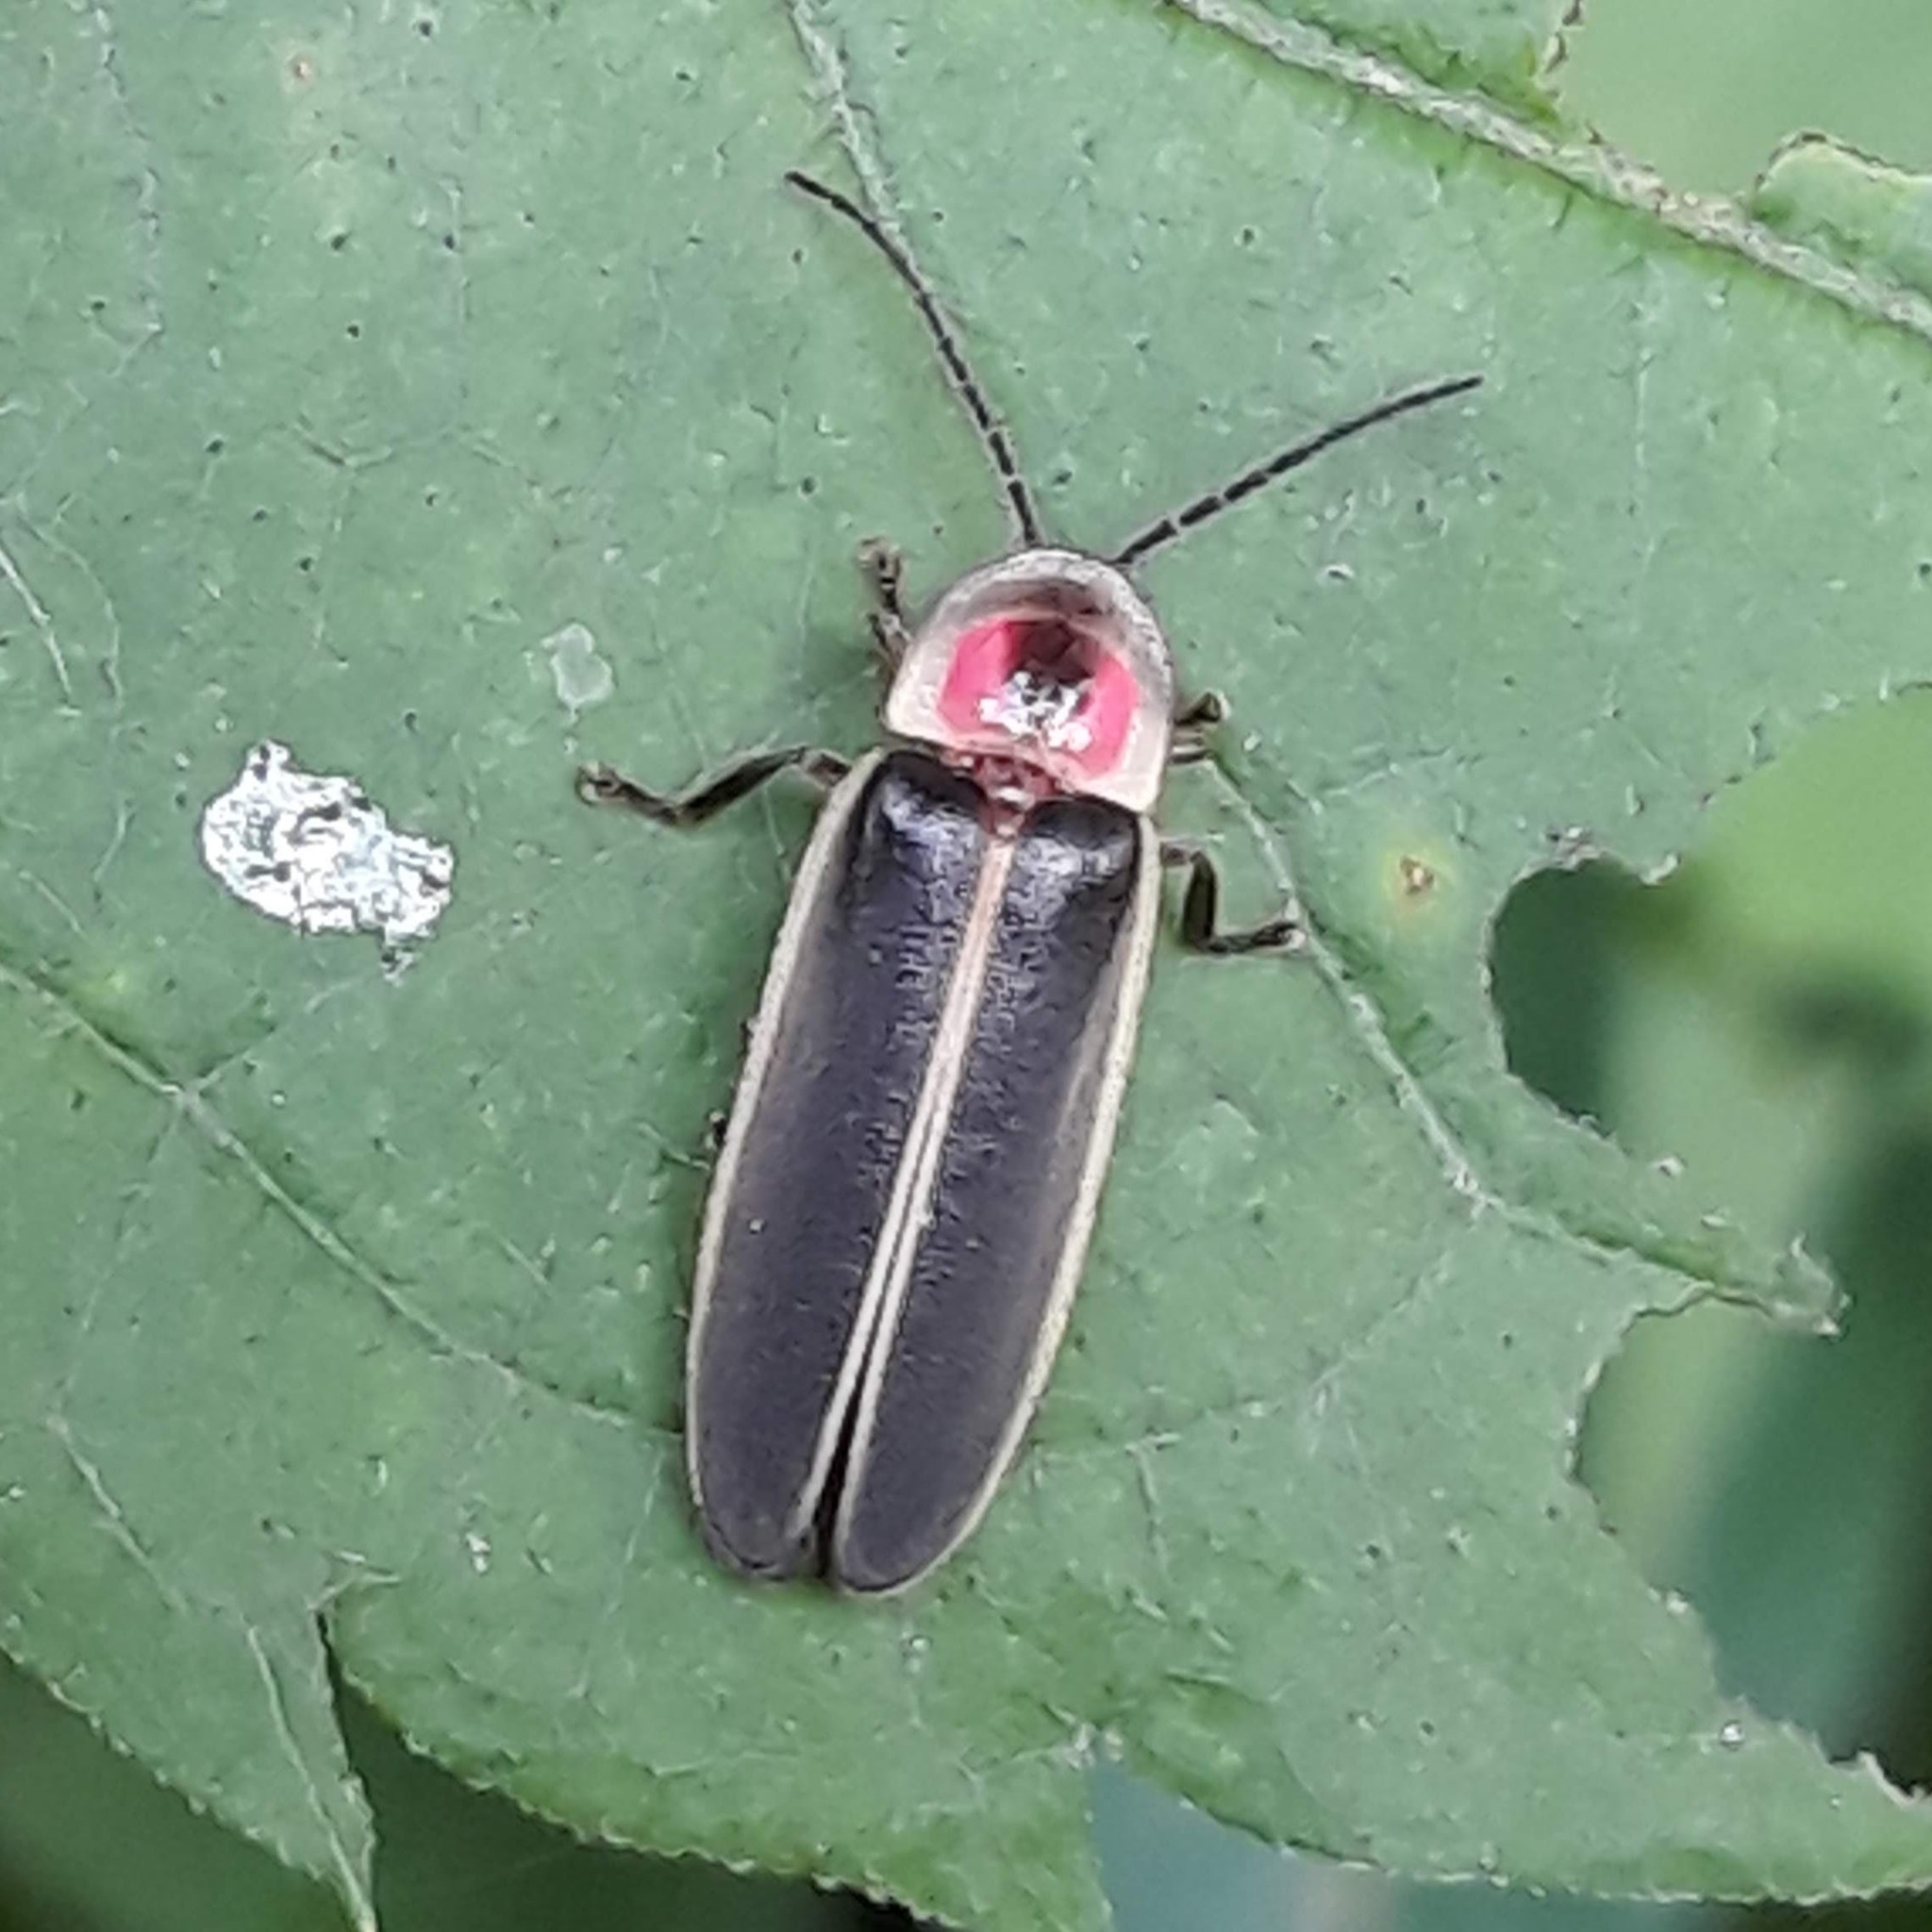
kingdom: Animalia
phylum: Arthropoda
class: Insecta
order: Coleoptera
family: Lampyridae
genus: Photinus
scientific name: Photinus pyralis
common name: Big dipper firefly
